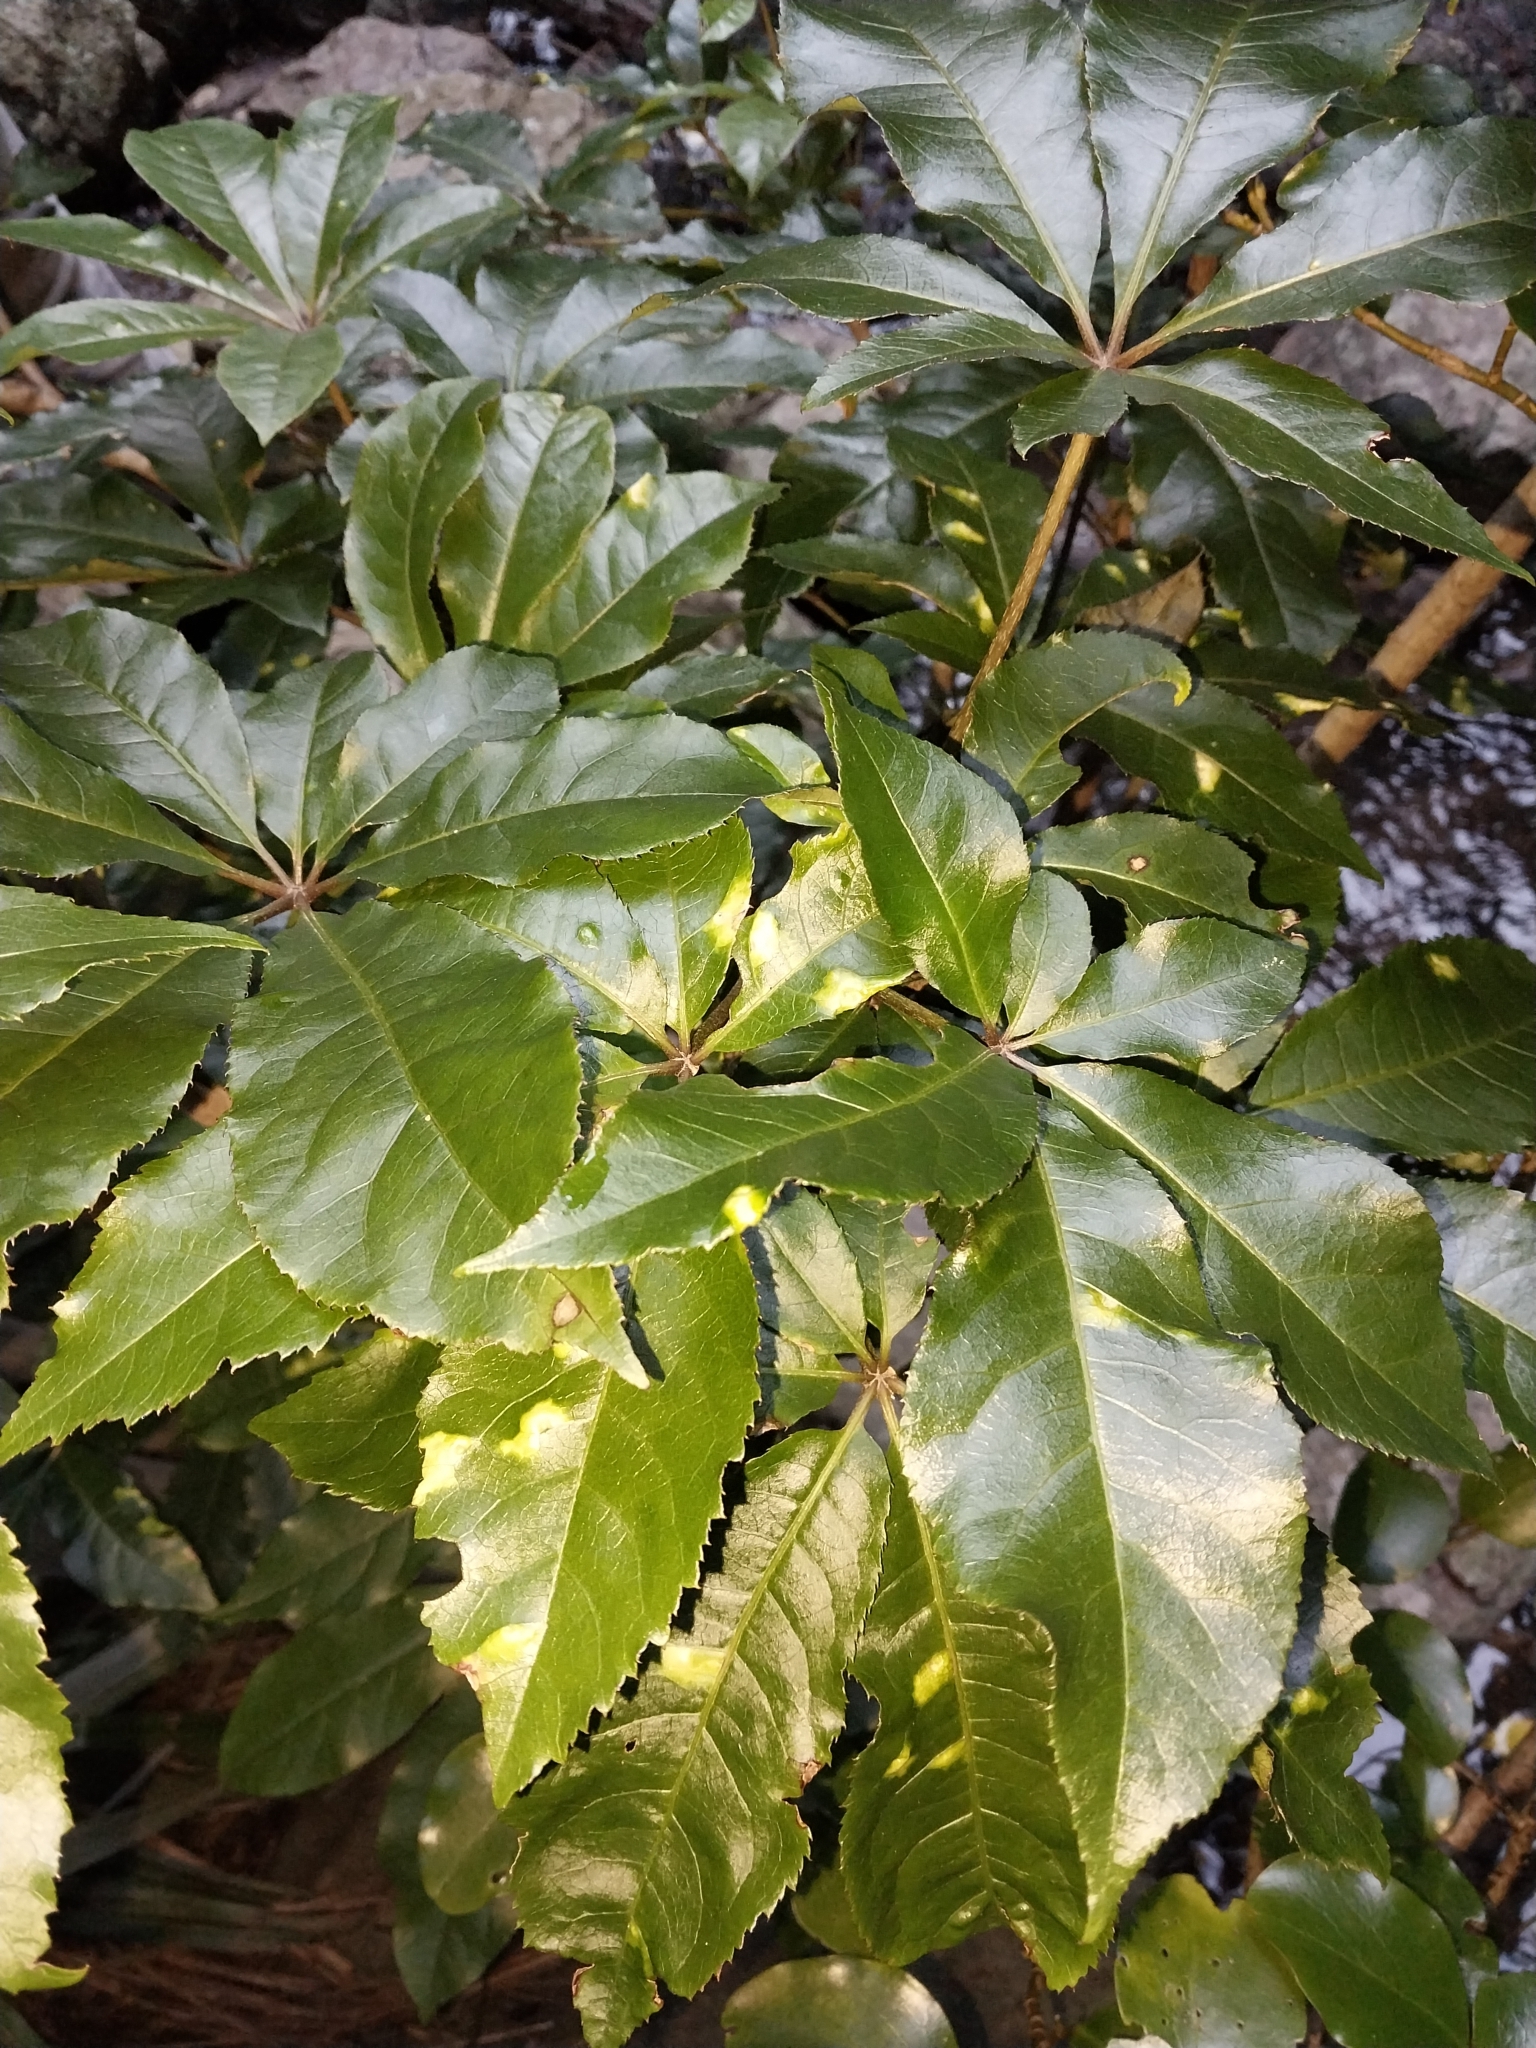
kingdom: Plantae
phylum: Tracheophyta
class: Magnoliopsida
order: Apiales
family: Araliaceae
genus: Schefflera
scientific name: Schefflera digitata
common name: Pate
